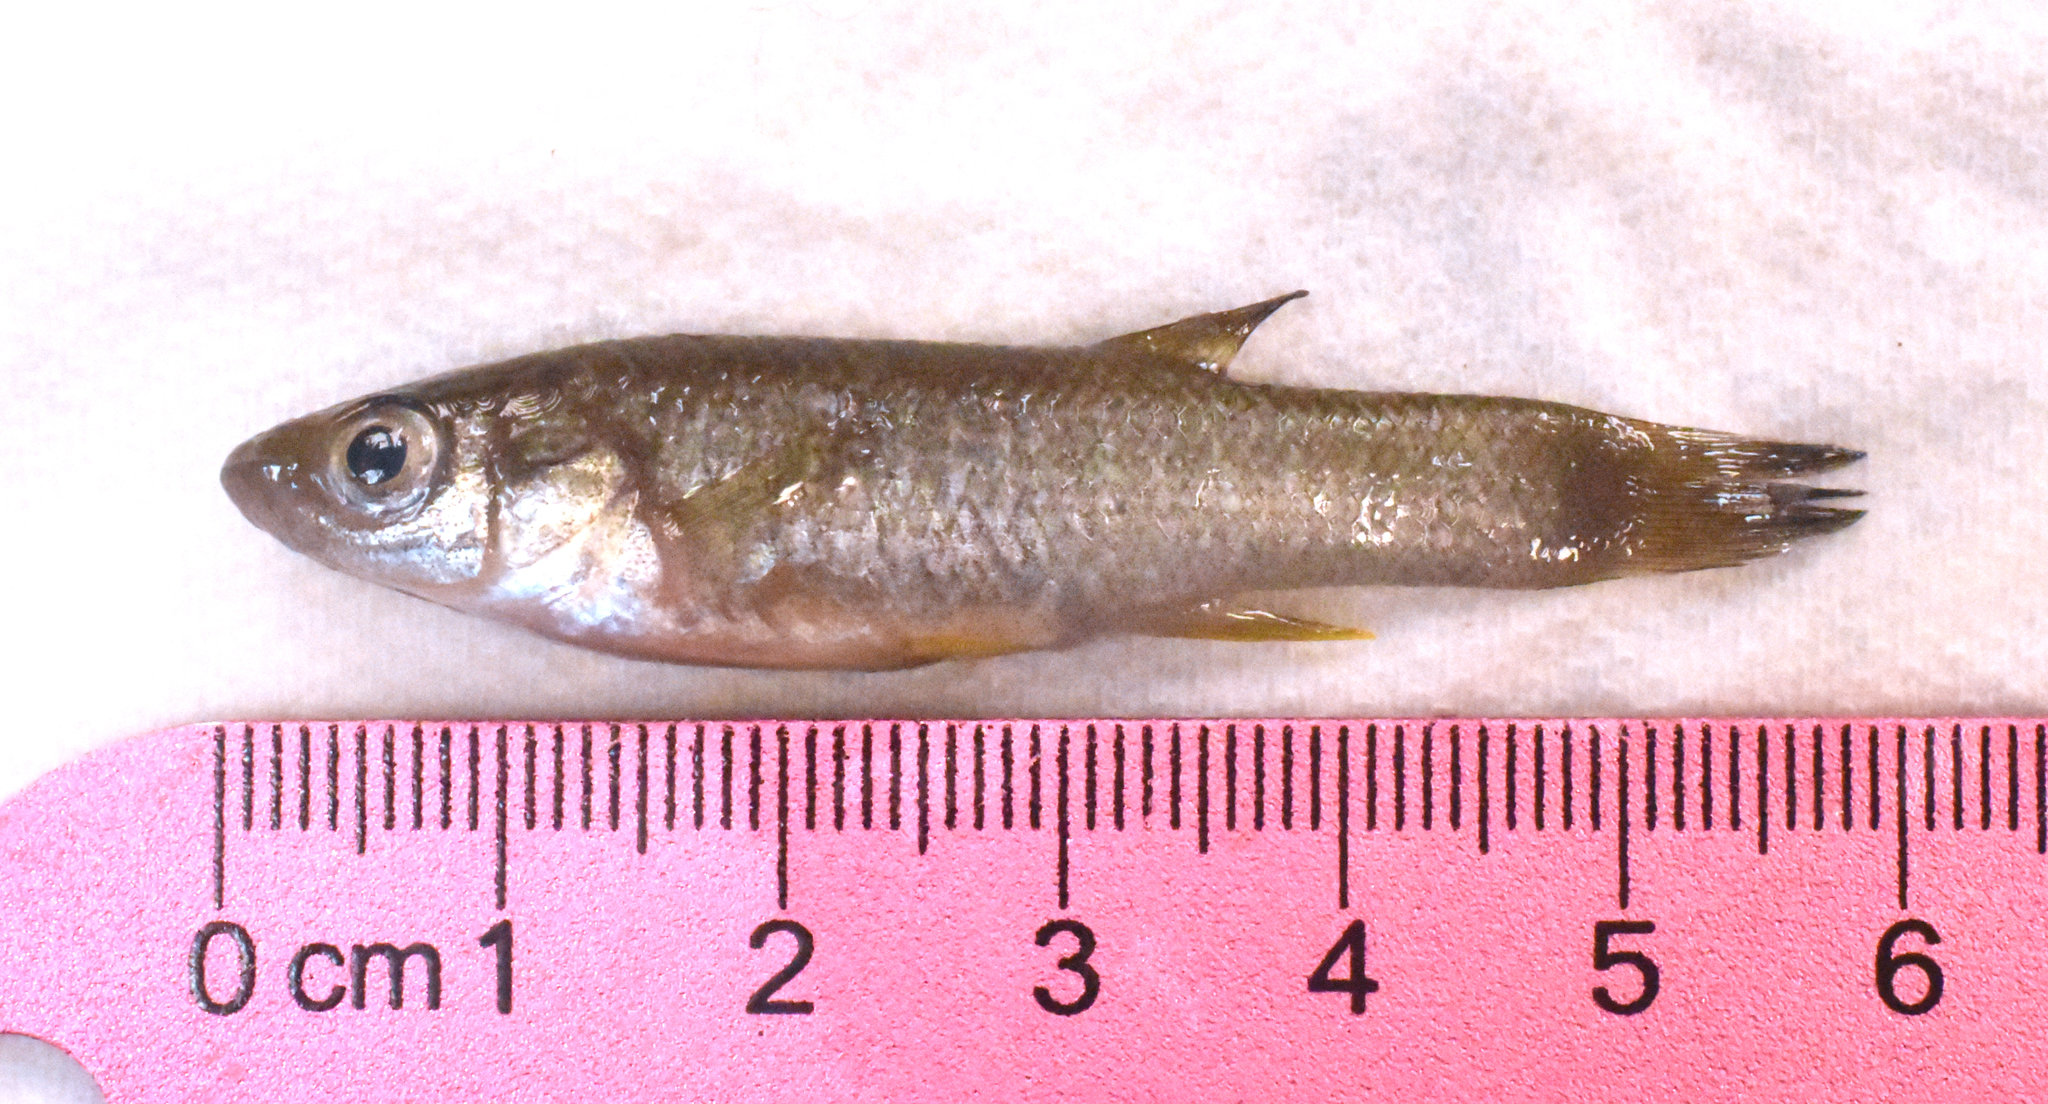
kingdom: Animalia
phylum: Chordata
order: Cyprinodontiformes
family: Fundulidae
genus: Fundulus
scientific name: Fundulus grandis
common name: Gulf killifish
